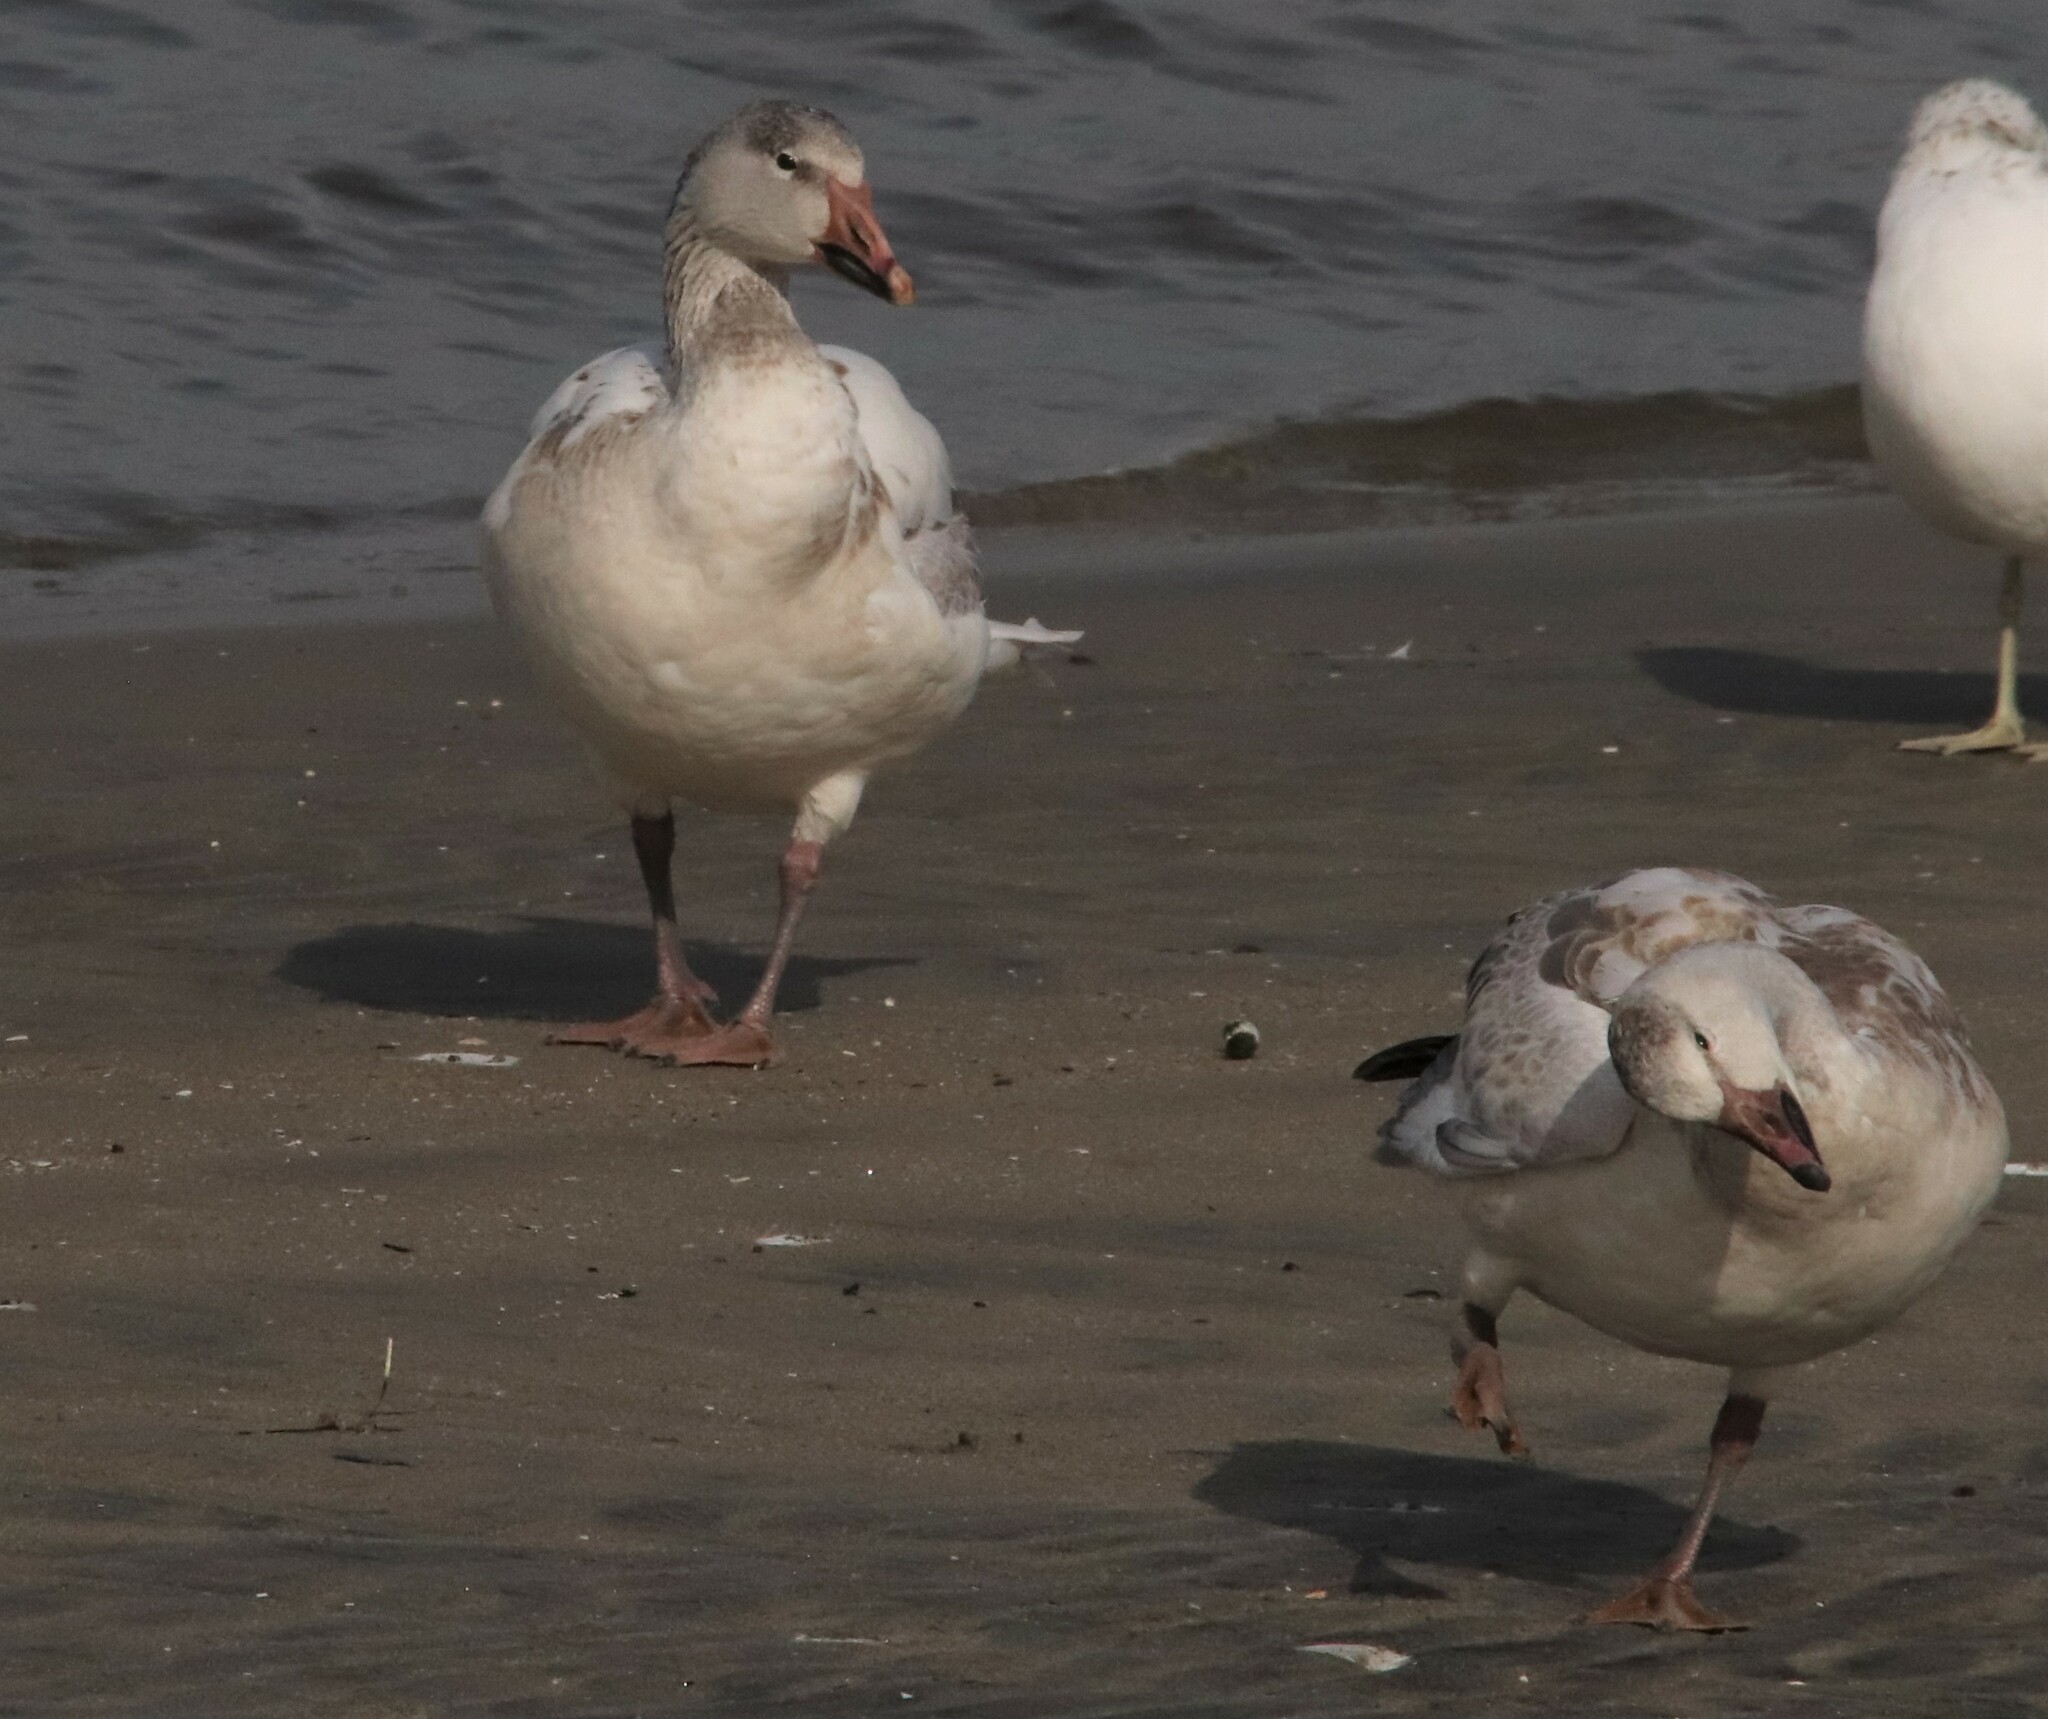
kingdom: Animalia
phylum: Chordata
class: Aves
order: Anseriformes
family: Anatidae
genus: Anser
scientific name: Anser caerulescens
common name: Snow goose
